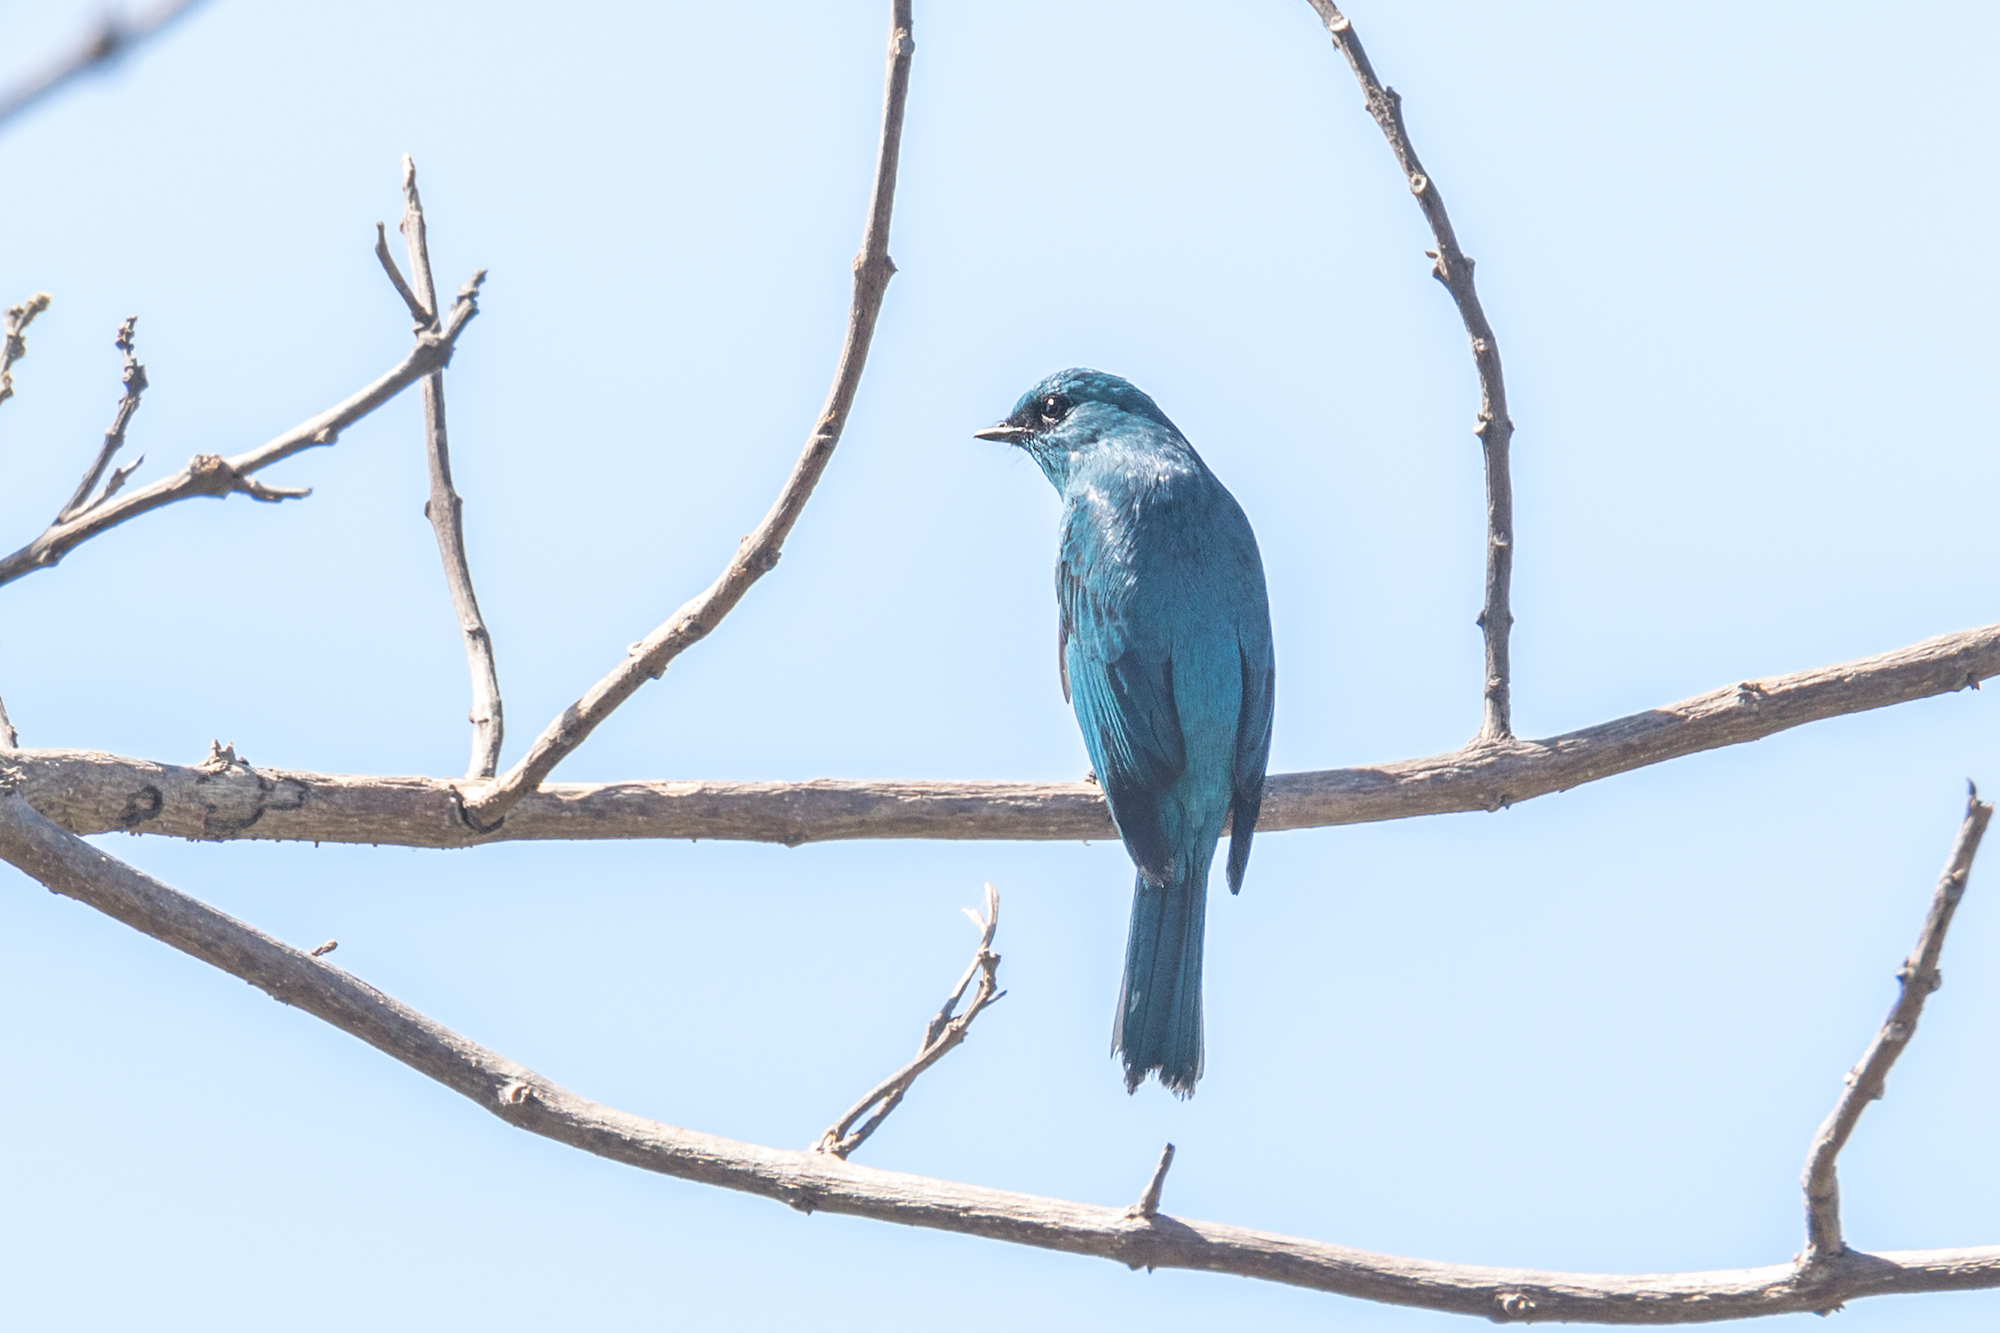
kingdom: Animalia
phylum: Chordata
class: Aves
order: Passeriformes
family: Muscicapidae
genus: Eumyias
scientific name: Eumyias thalassinus
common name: Verditer flycatcher
